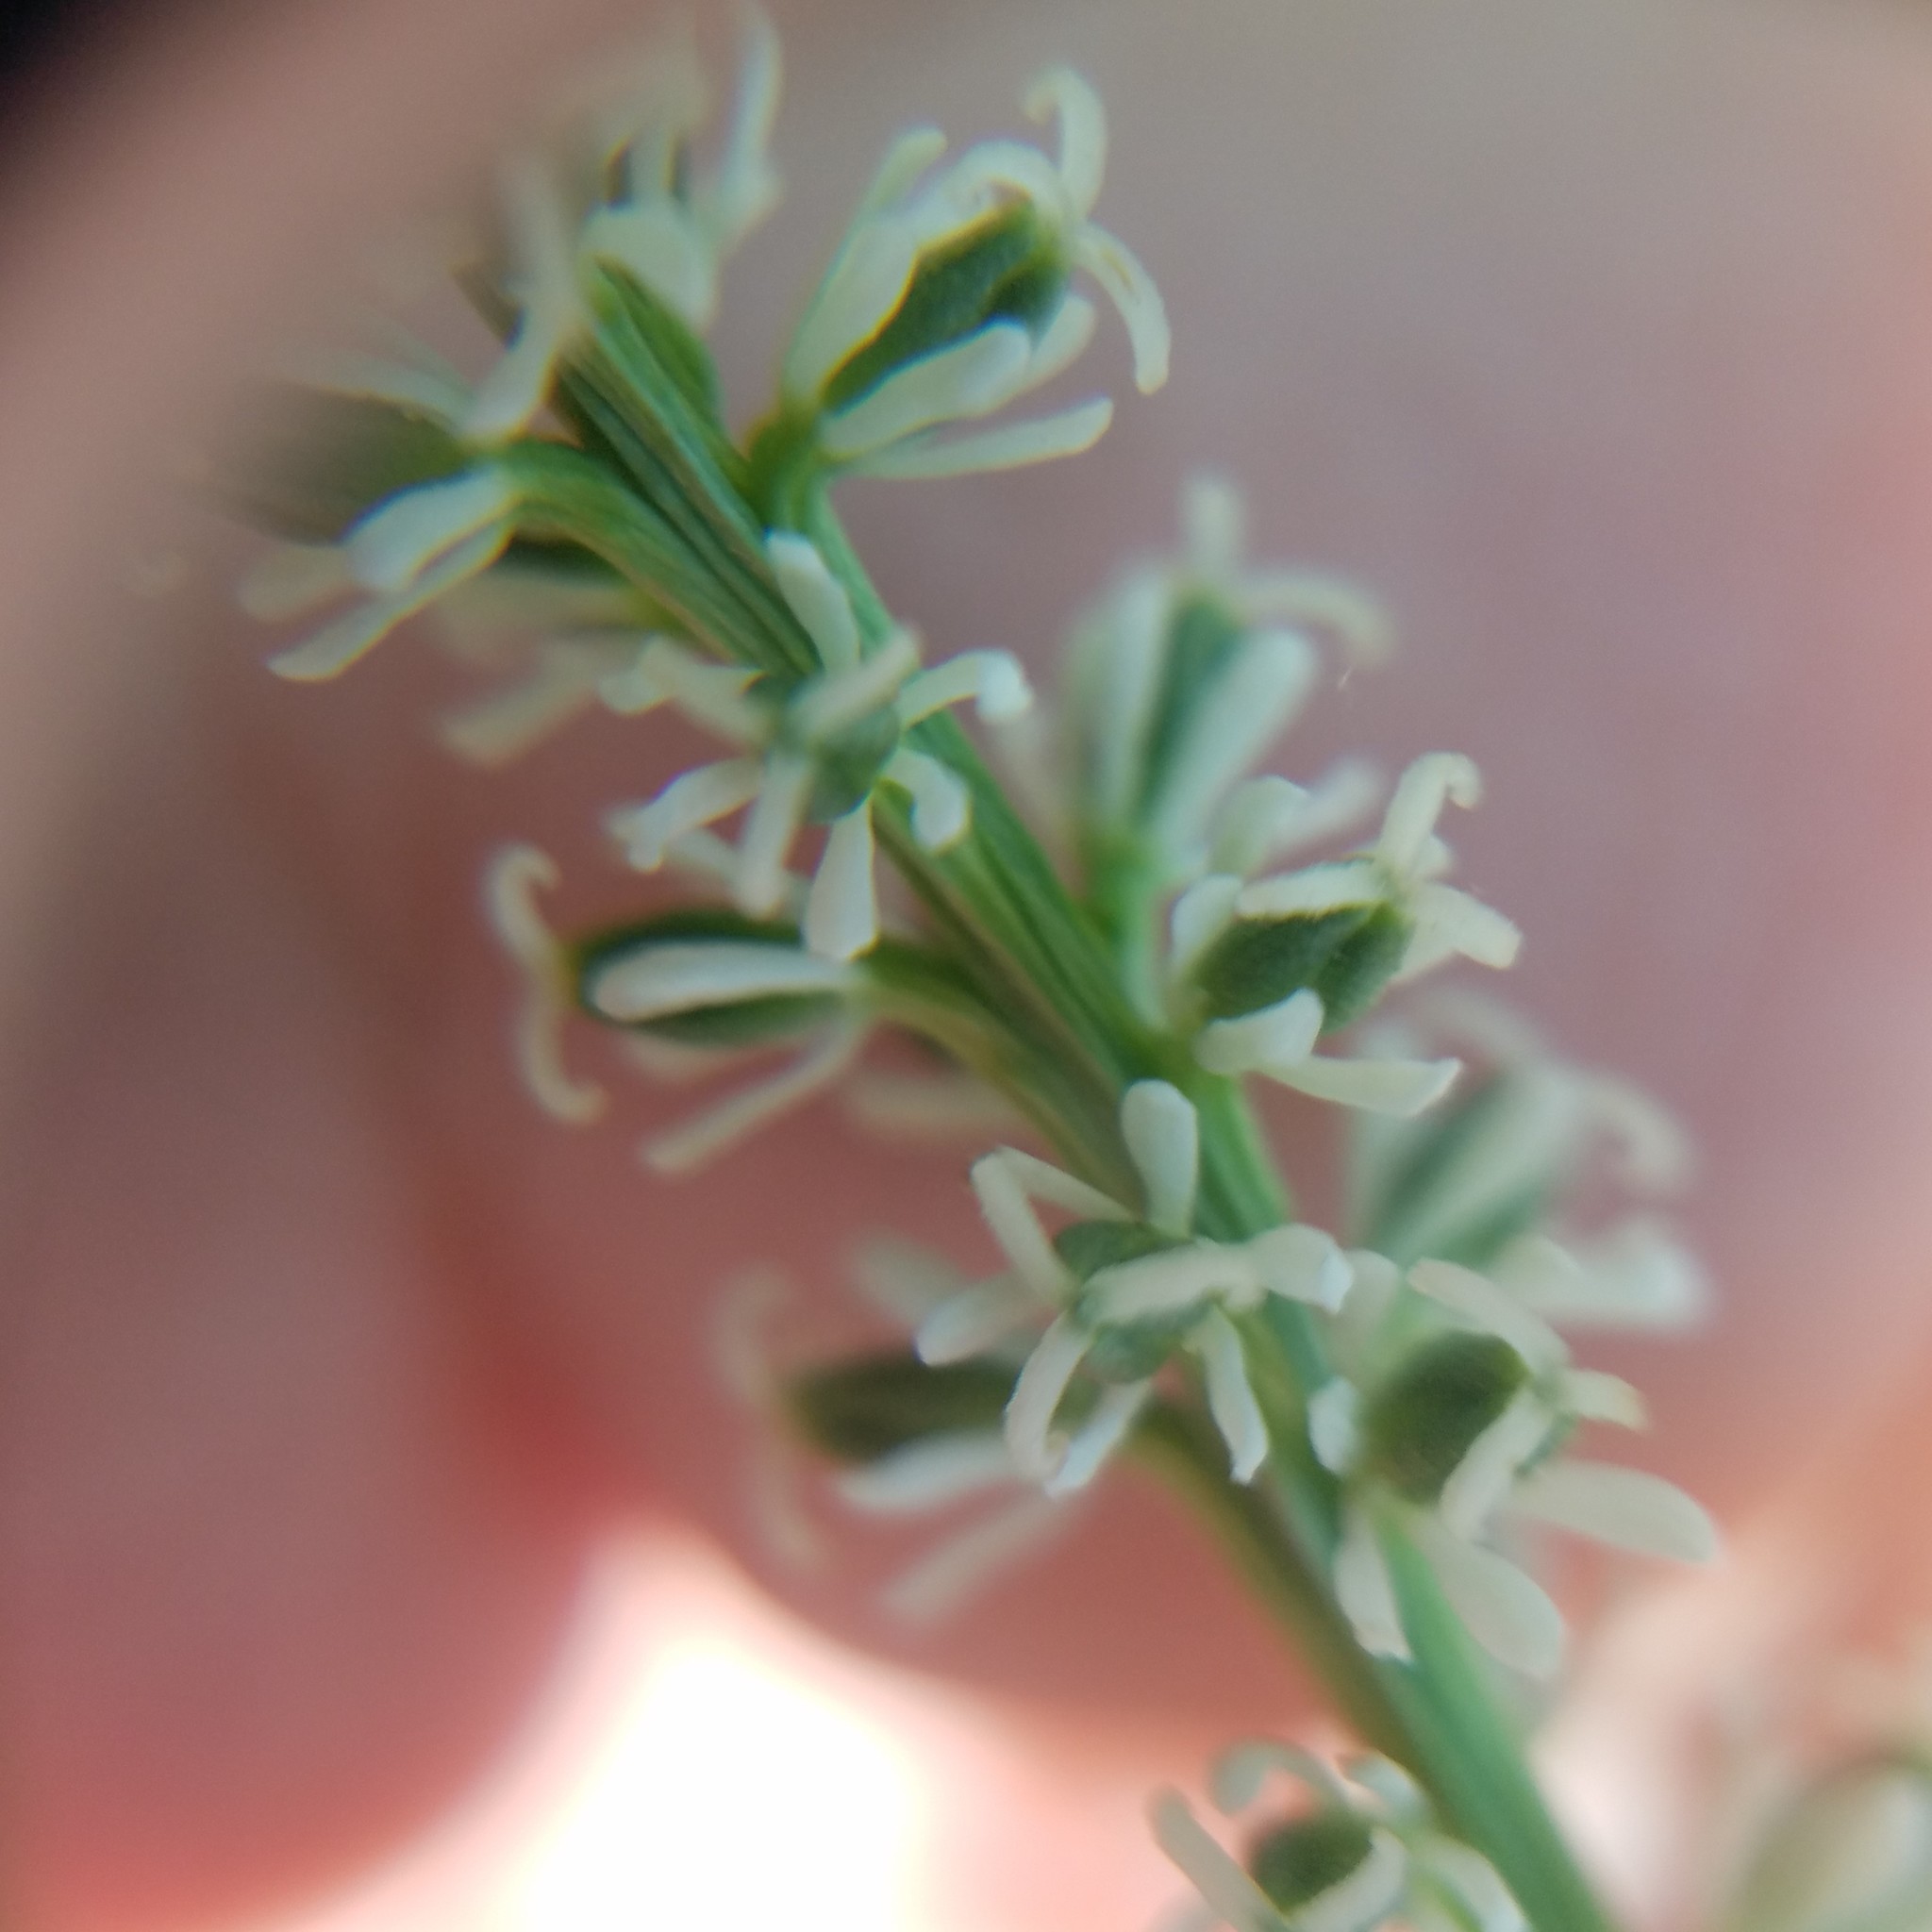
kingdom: Plantae
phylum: Tracheophyta
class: Liliopsida
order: Liliales
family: Melanthiaceae
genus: Chamaelirium
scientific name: Chamaelirium luteum
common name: Fairy-wand
